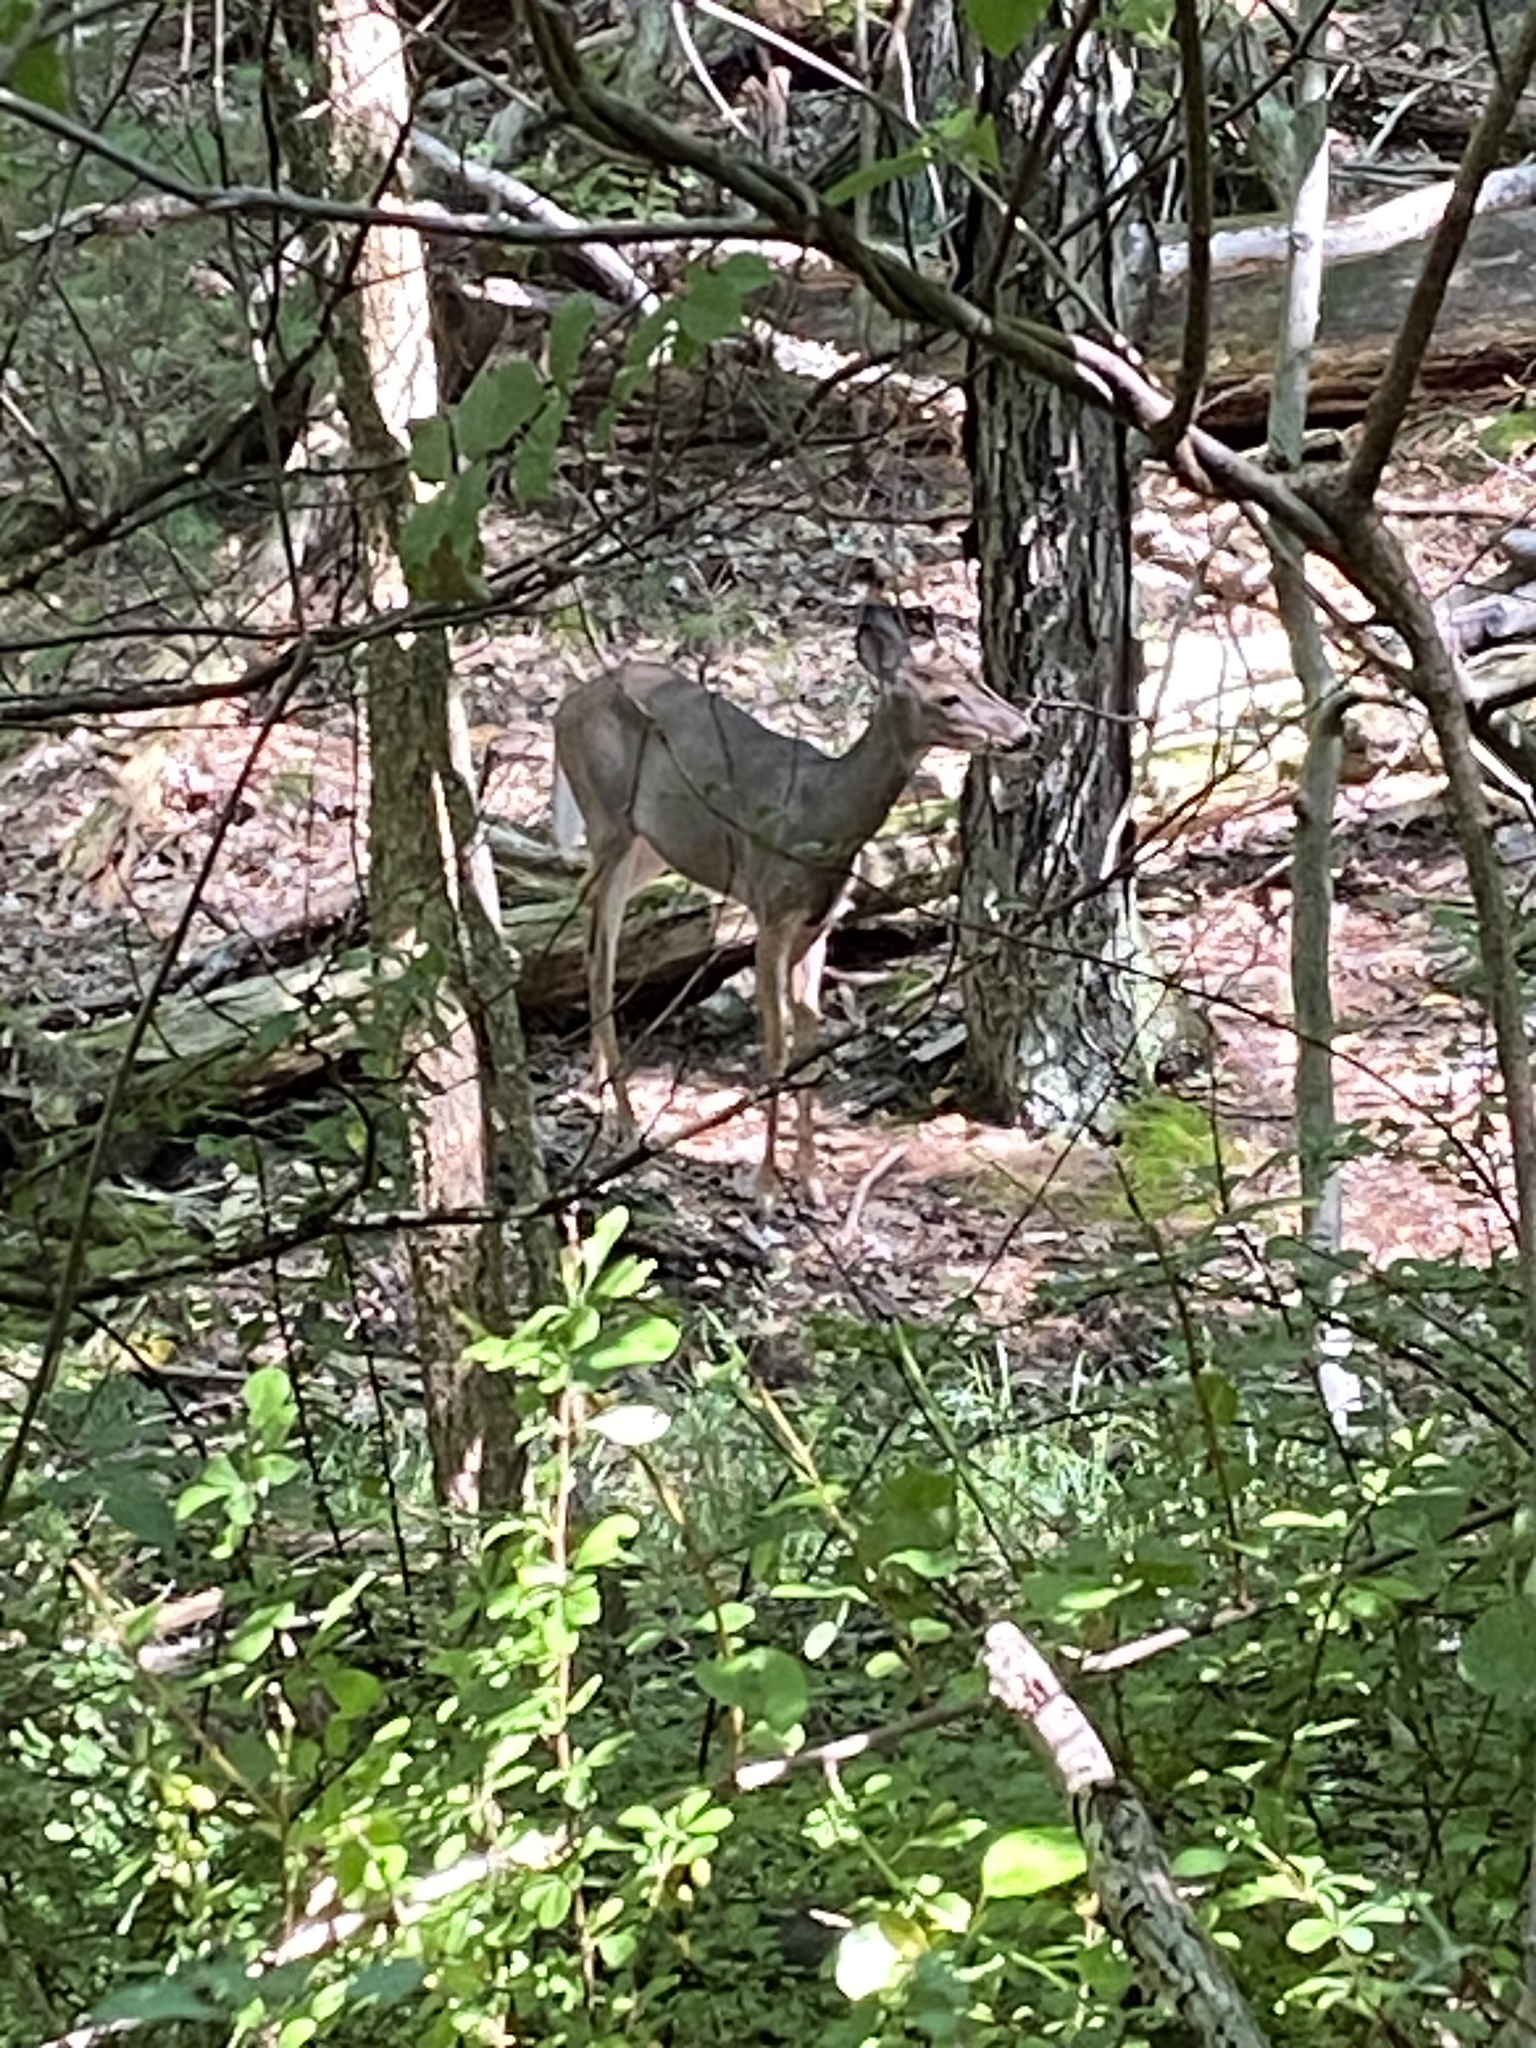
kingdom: Animalia
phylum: Chordata
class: Mammalia
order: Artiodactyla
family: Cervidae
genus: Odocoileus
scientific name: Odocoileus virginianus
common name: White-tailed deer
